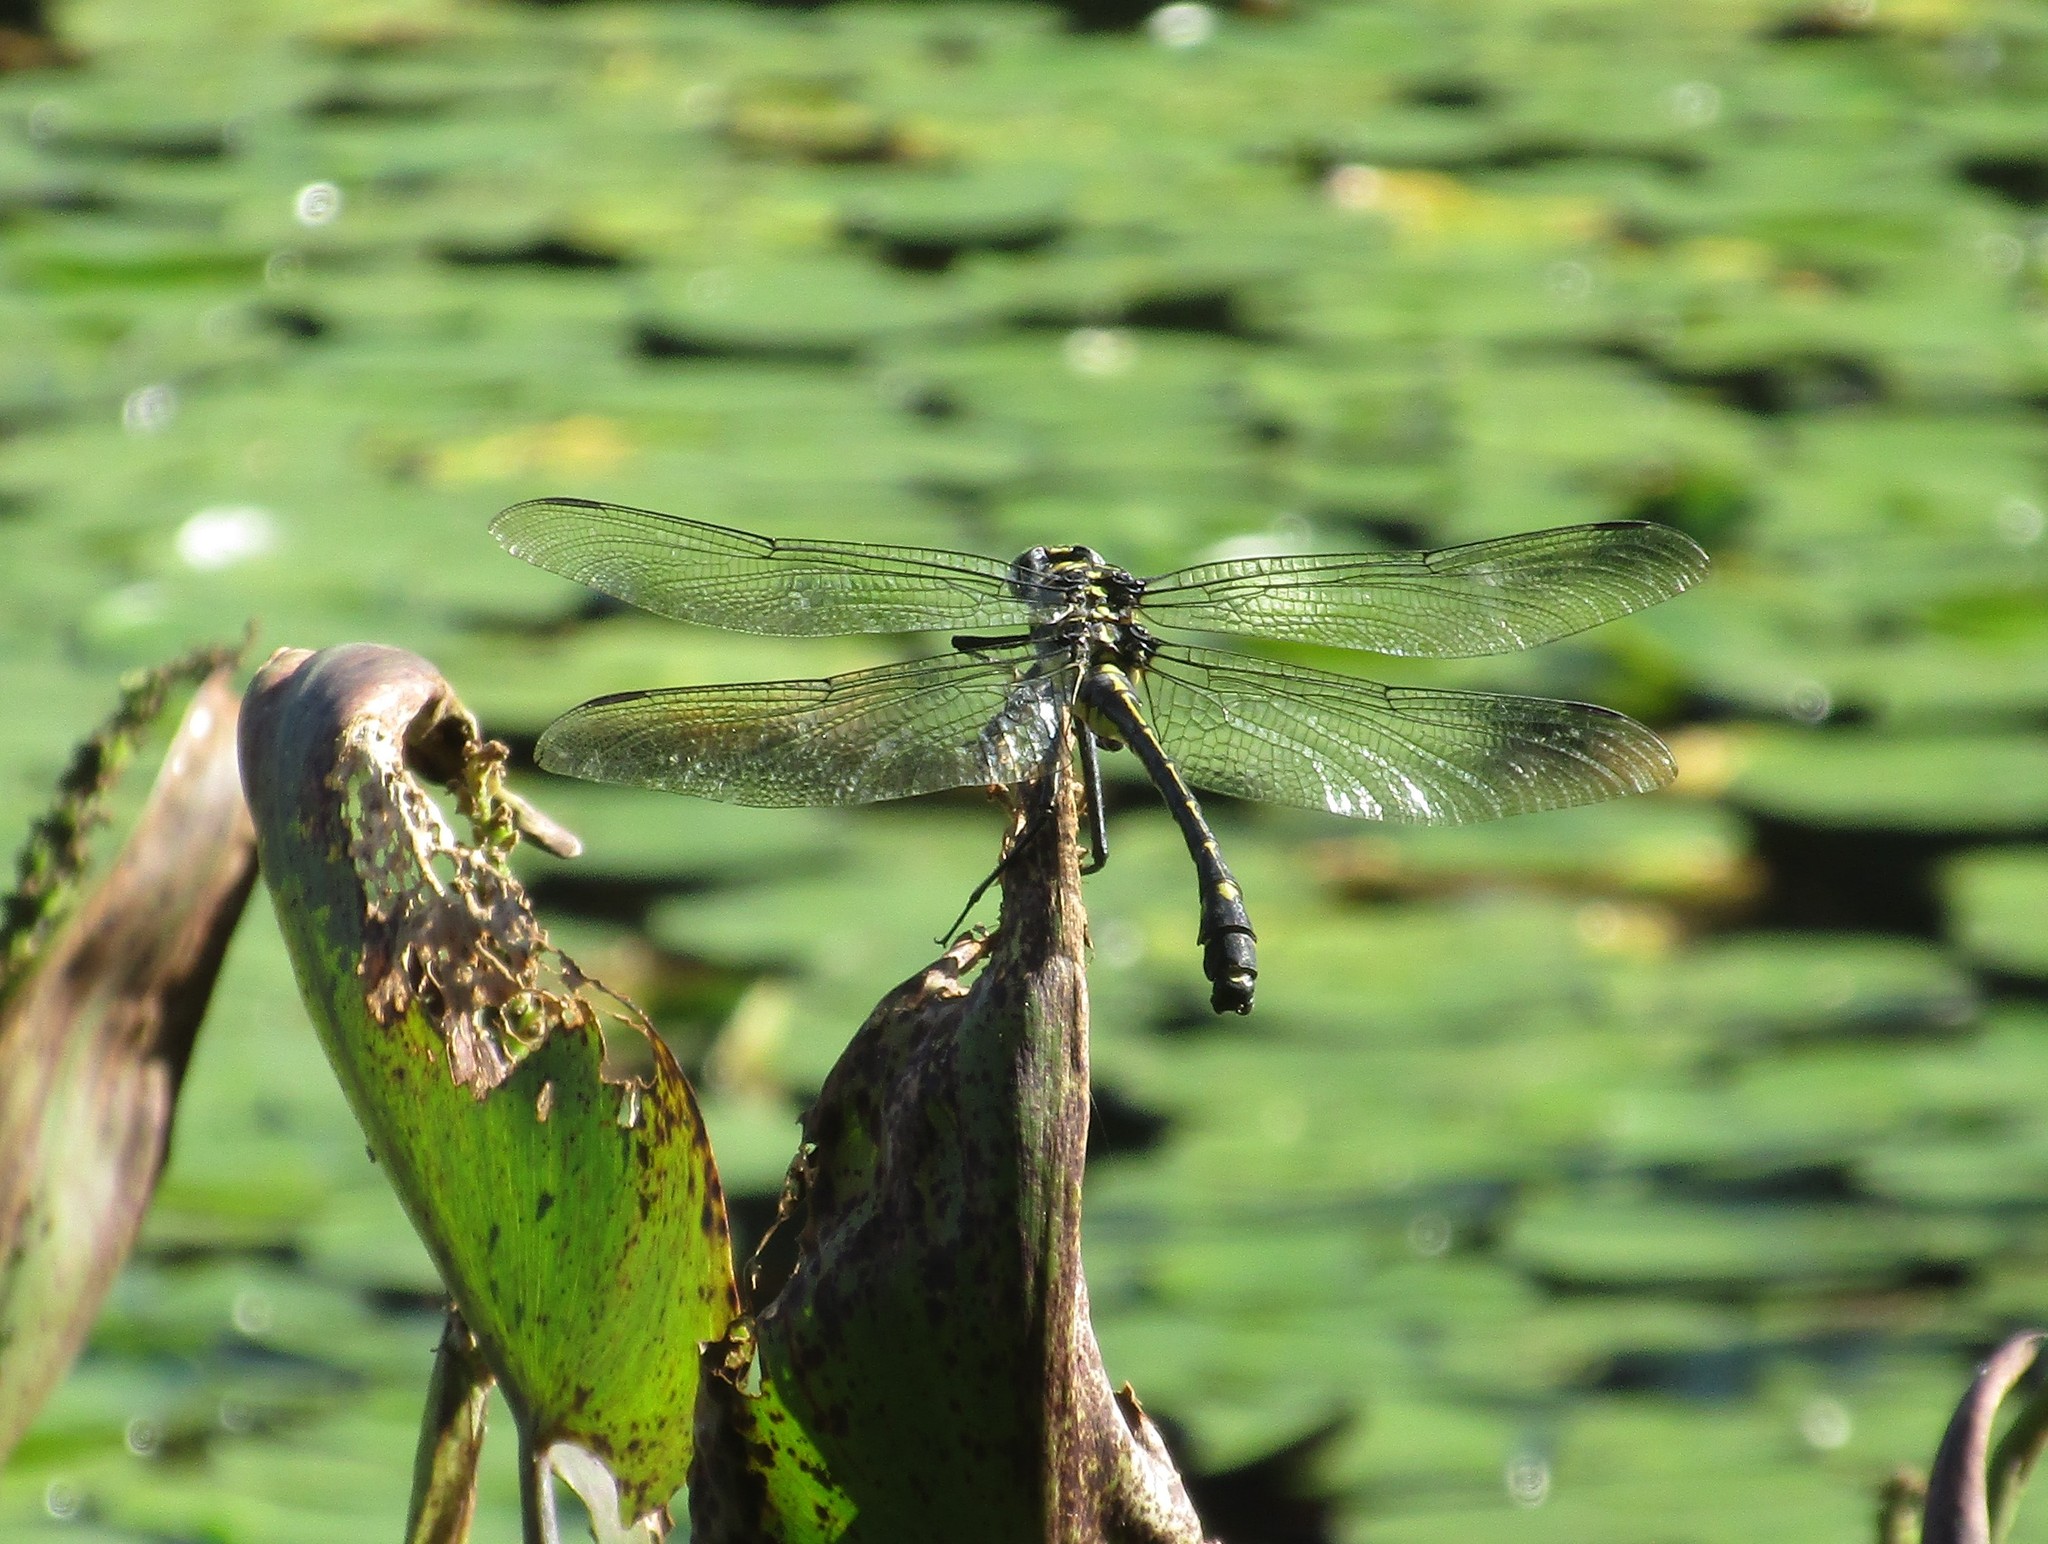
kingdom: Animalia
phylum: Arthropoda
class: Insecta
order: Odonata
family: Gomphidae
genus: Hagenius
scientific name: Hagenius brevistylus
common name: Dragonhunter
